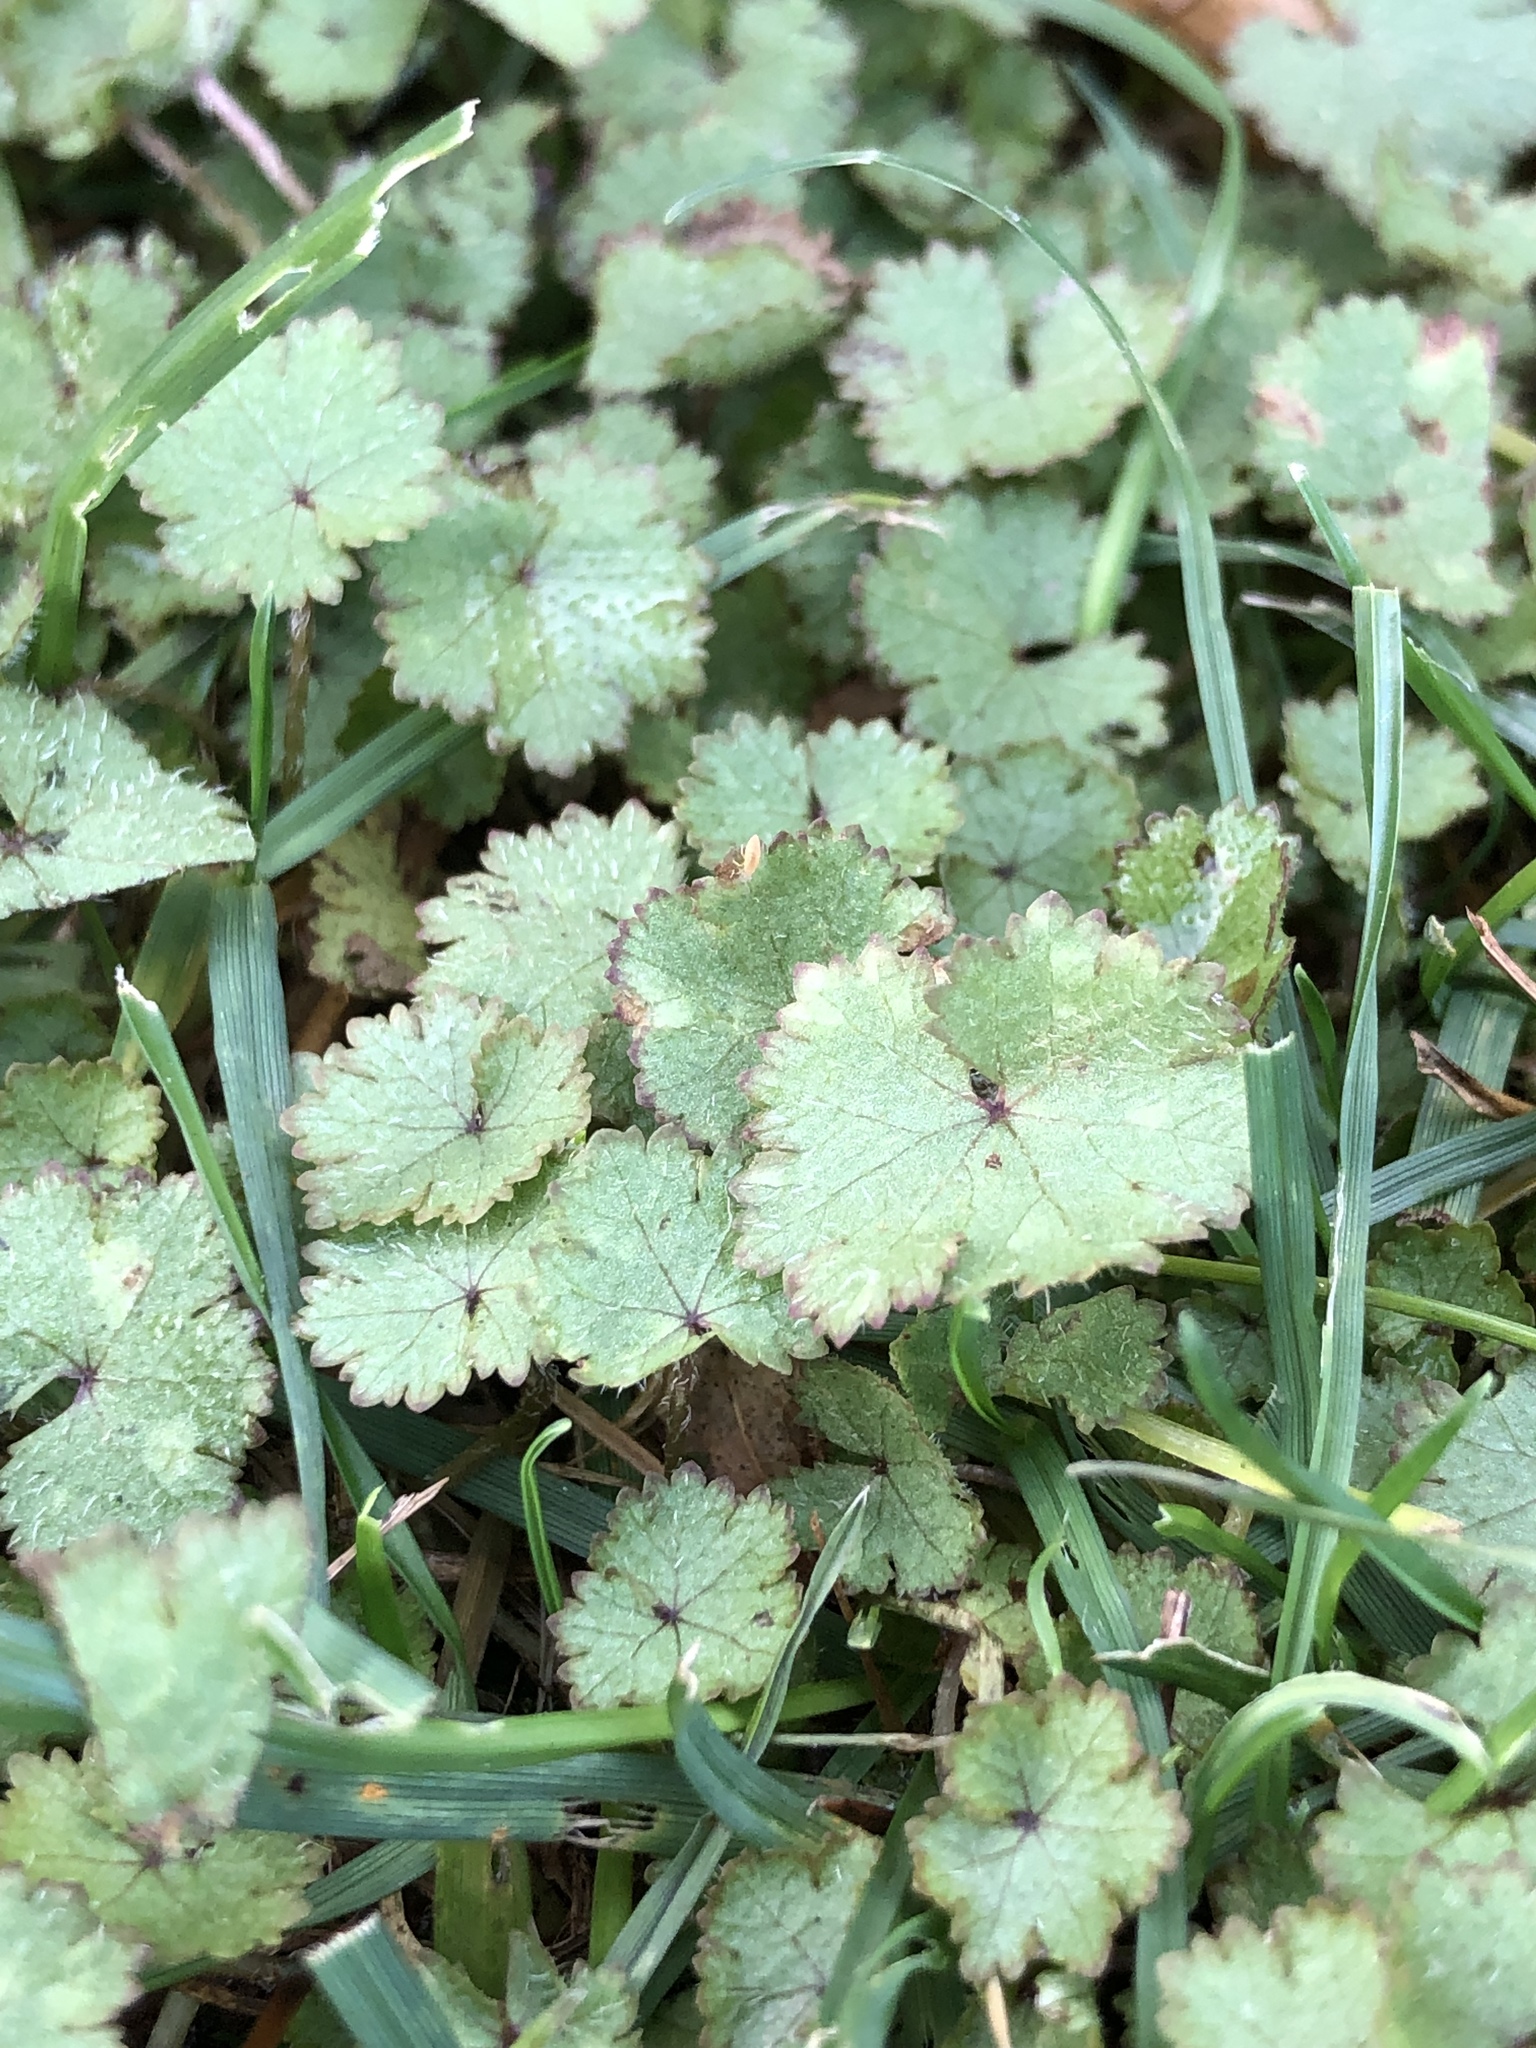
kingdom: Plantae
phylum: Tracheophyta
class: Magnoliopsida
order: Apiales
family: Araliaceae
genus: Hydrocotyle
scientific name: Hydrocotyle moschata
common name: Hairy pennywort
